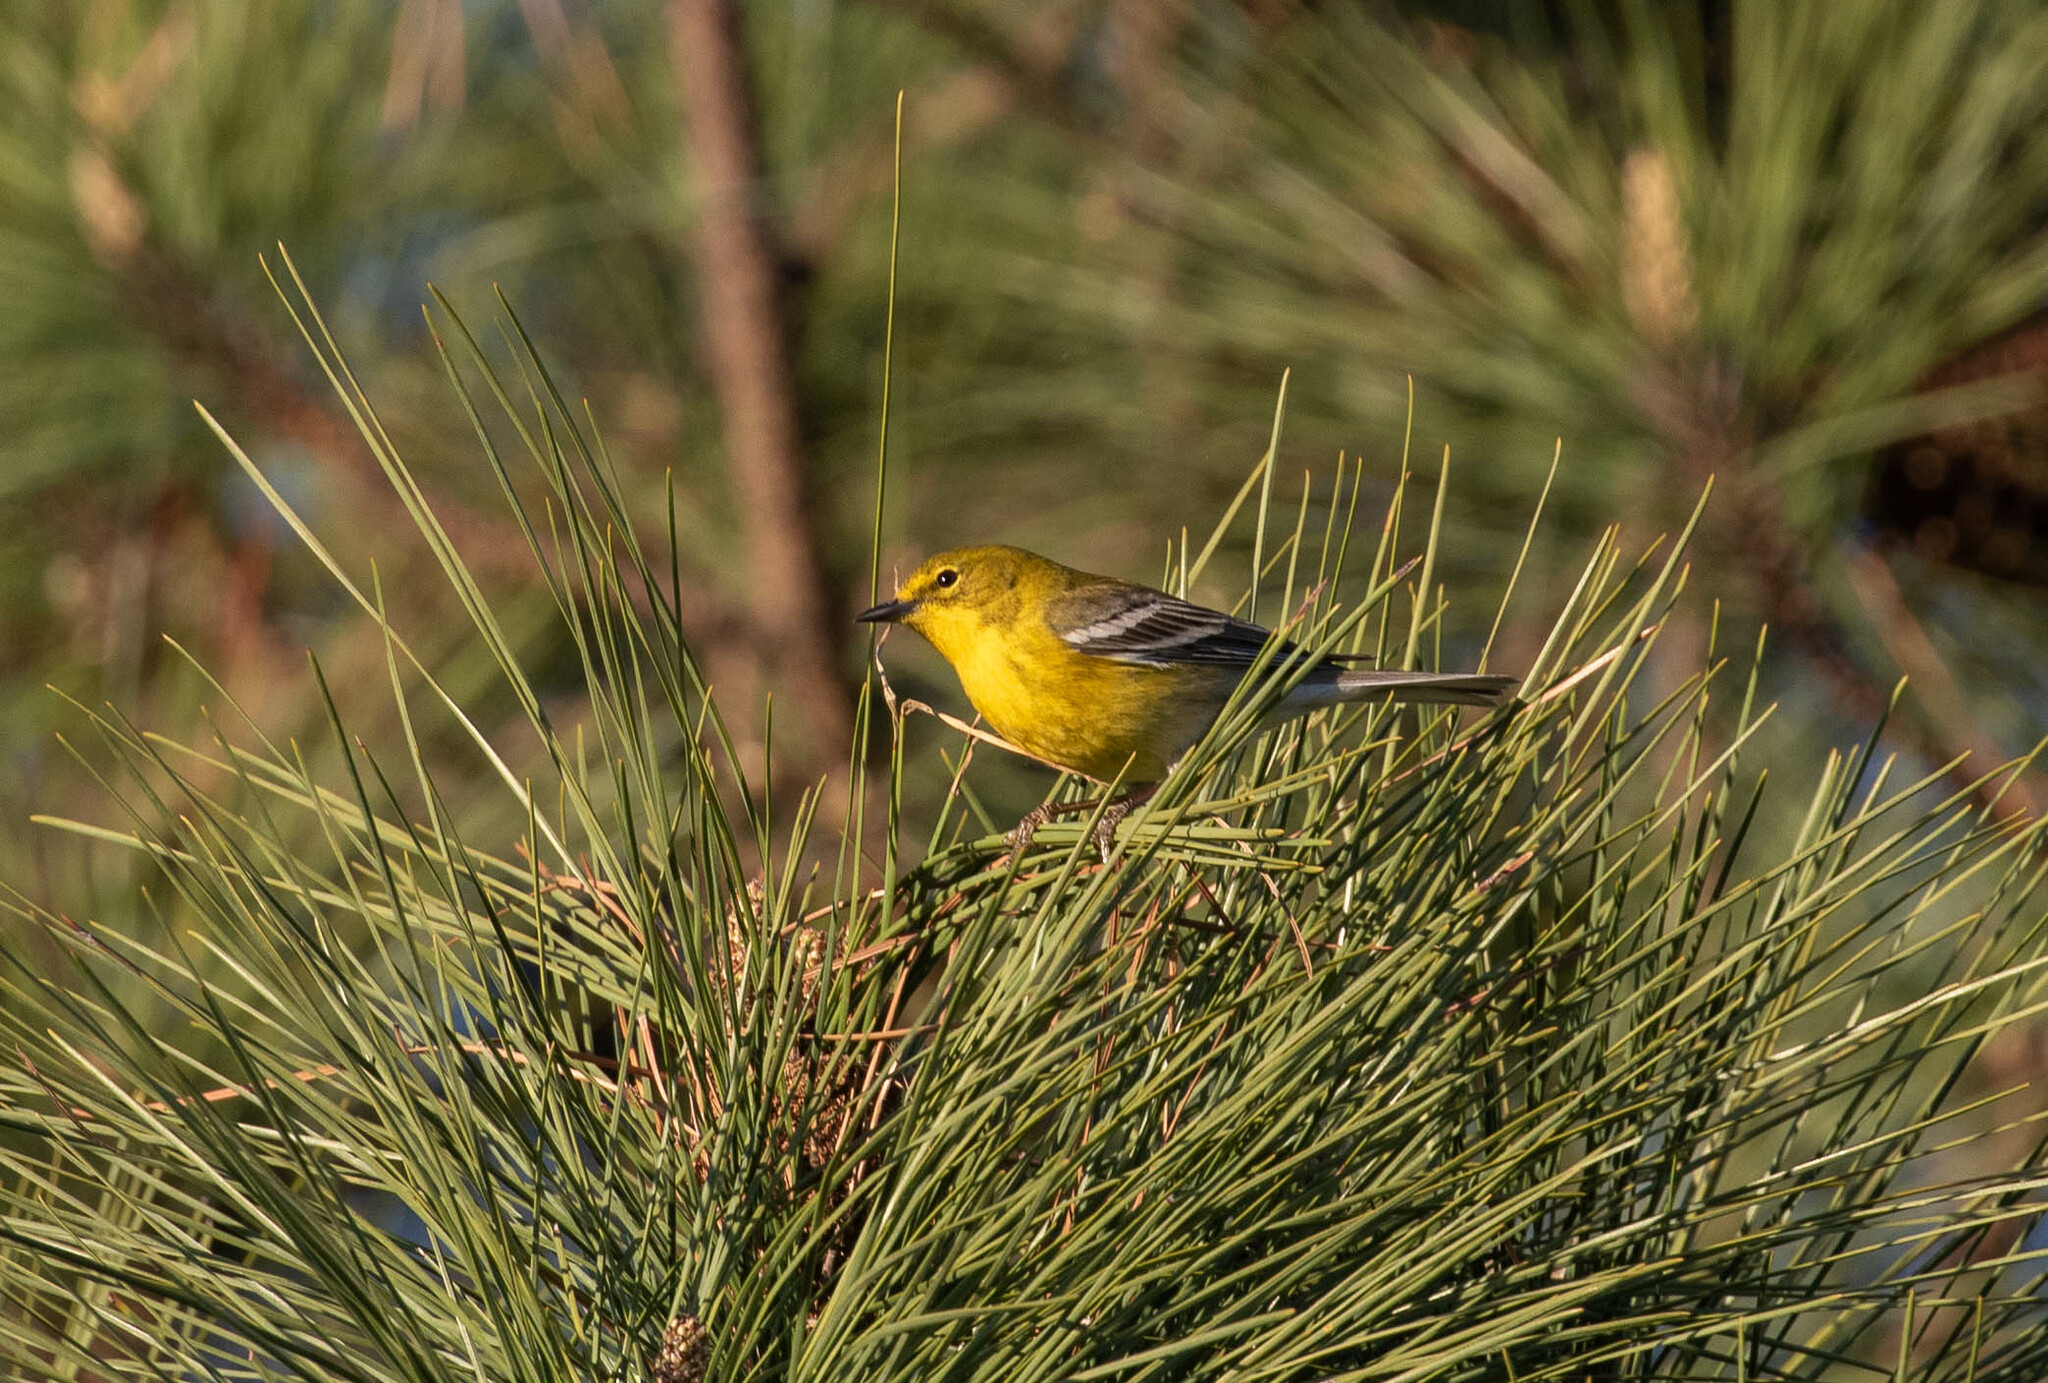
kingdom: Animalia
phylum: Chordata
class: Aves
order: Passeriformes
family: Parulidae
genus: Setophaga
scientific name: Setophaga pinus
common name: Pine warbler
